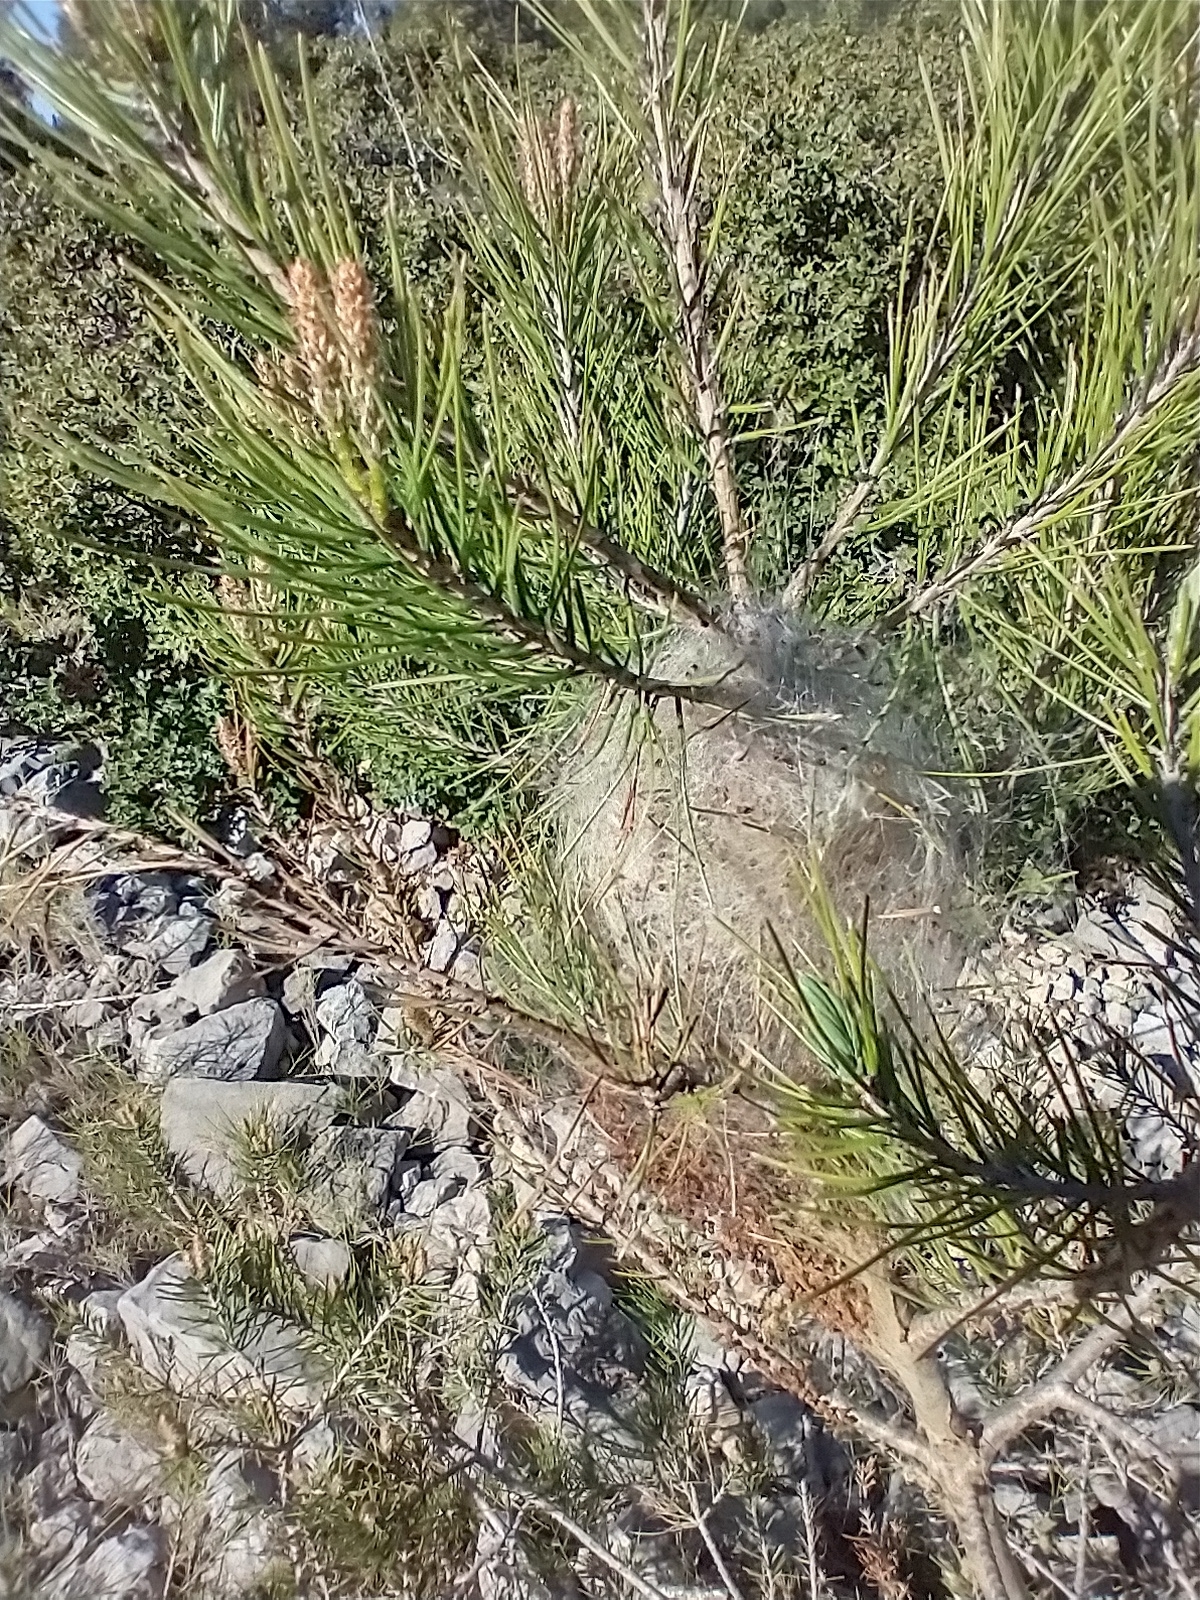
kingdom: Animalia
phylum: Arthropoda
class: Insecta
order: Lepidoptera
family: Notodontidae
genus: Thaumetopoea
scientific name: Thaumetopoea pityocampa
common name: Pine processionary
